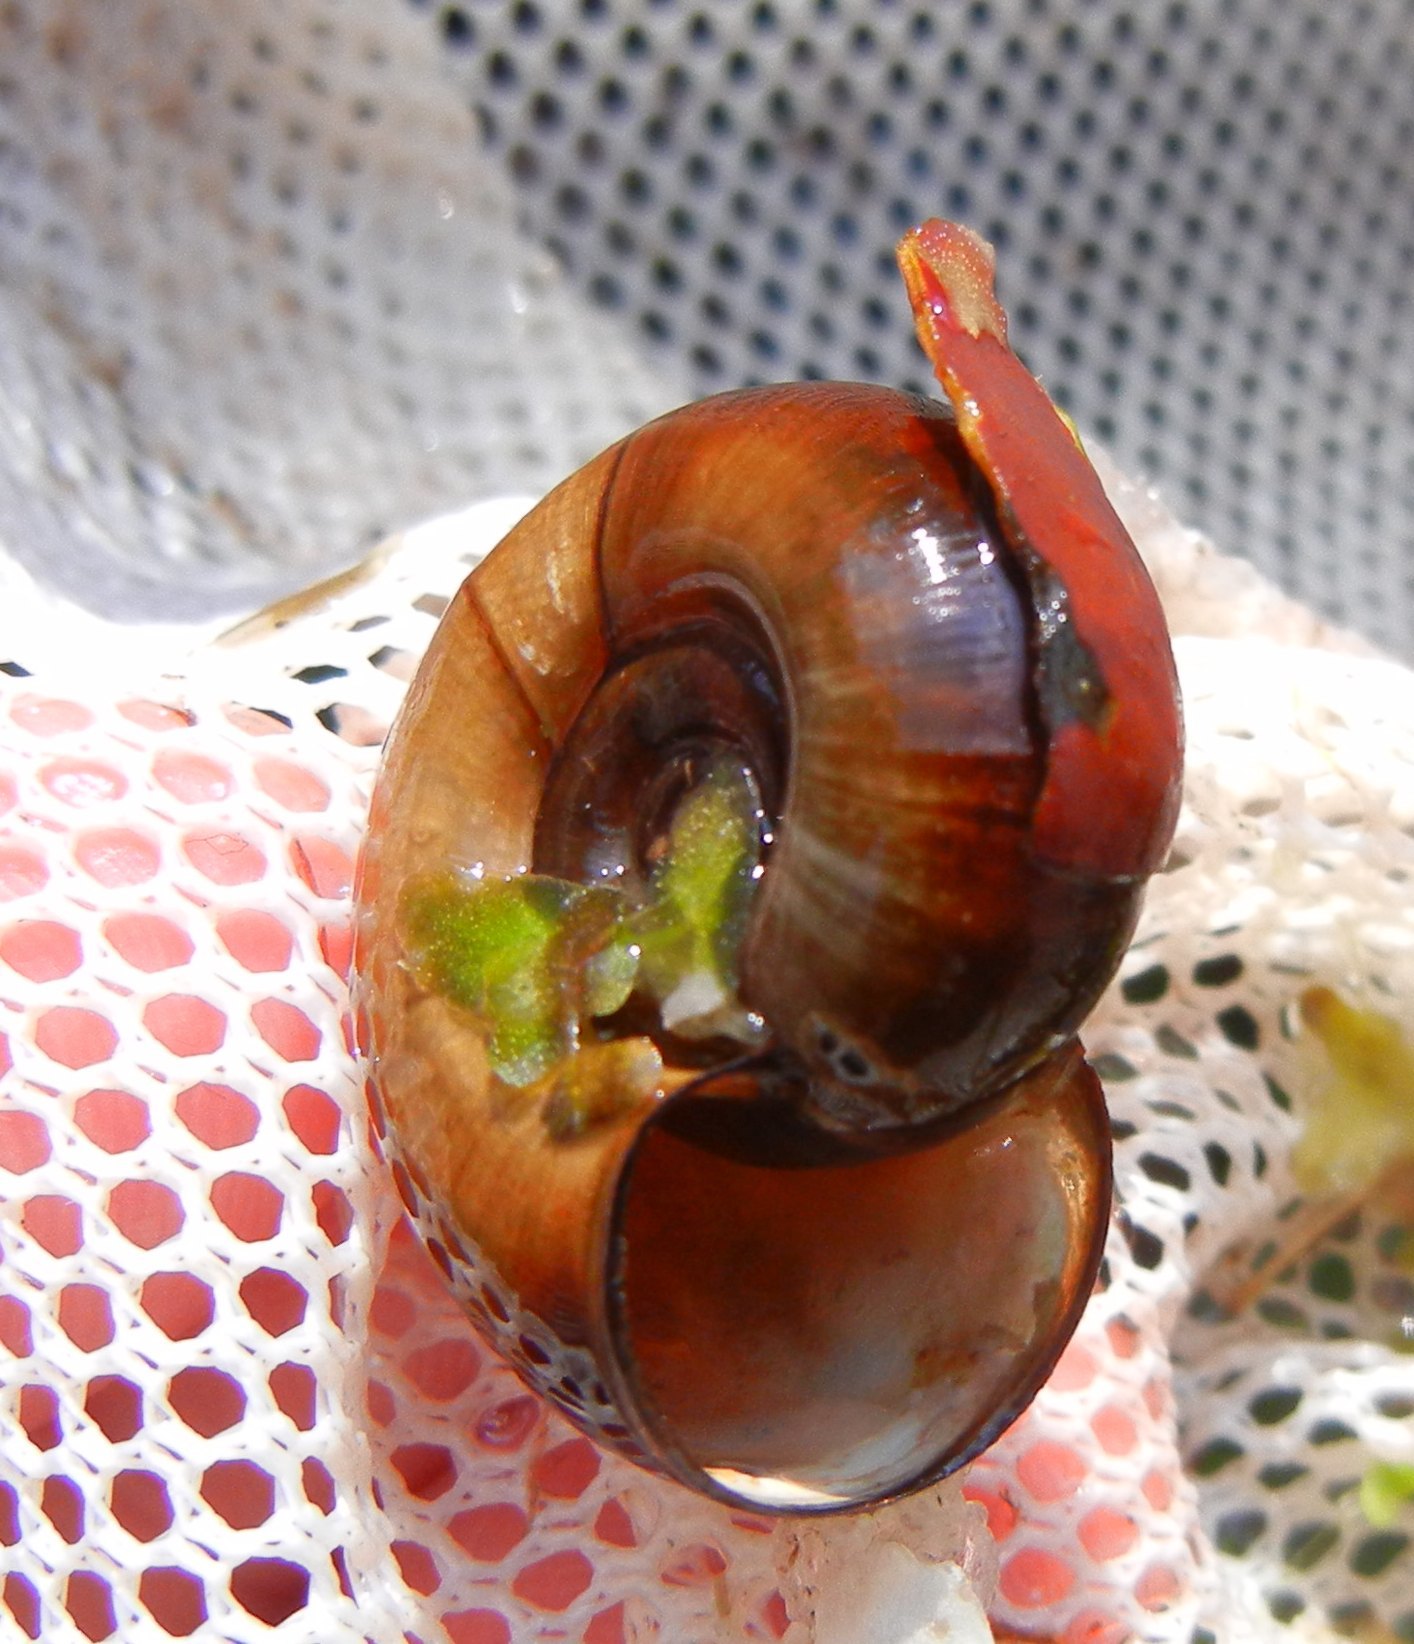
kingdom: Animalia
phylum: Mollusca
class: Gastropoda
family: Planorbidae
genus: Planorbarius
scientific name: Planorbarius corneus
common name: Great ramshorn
